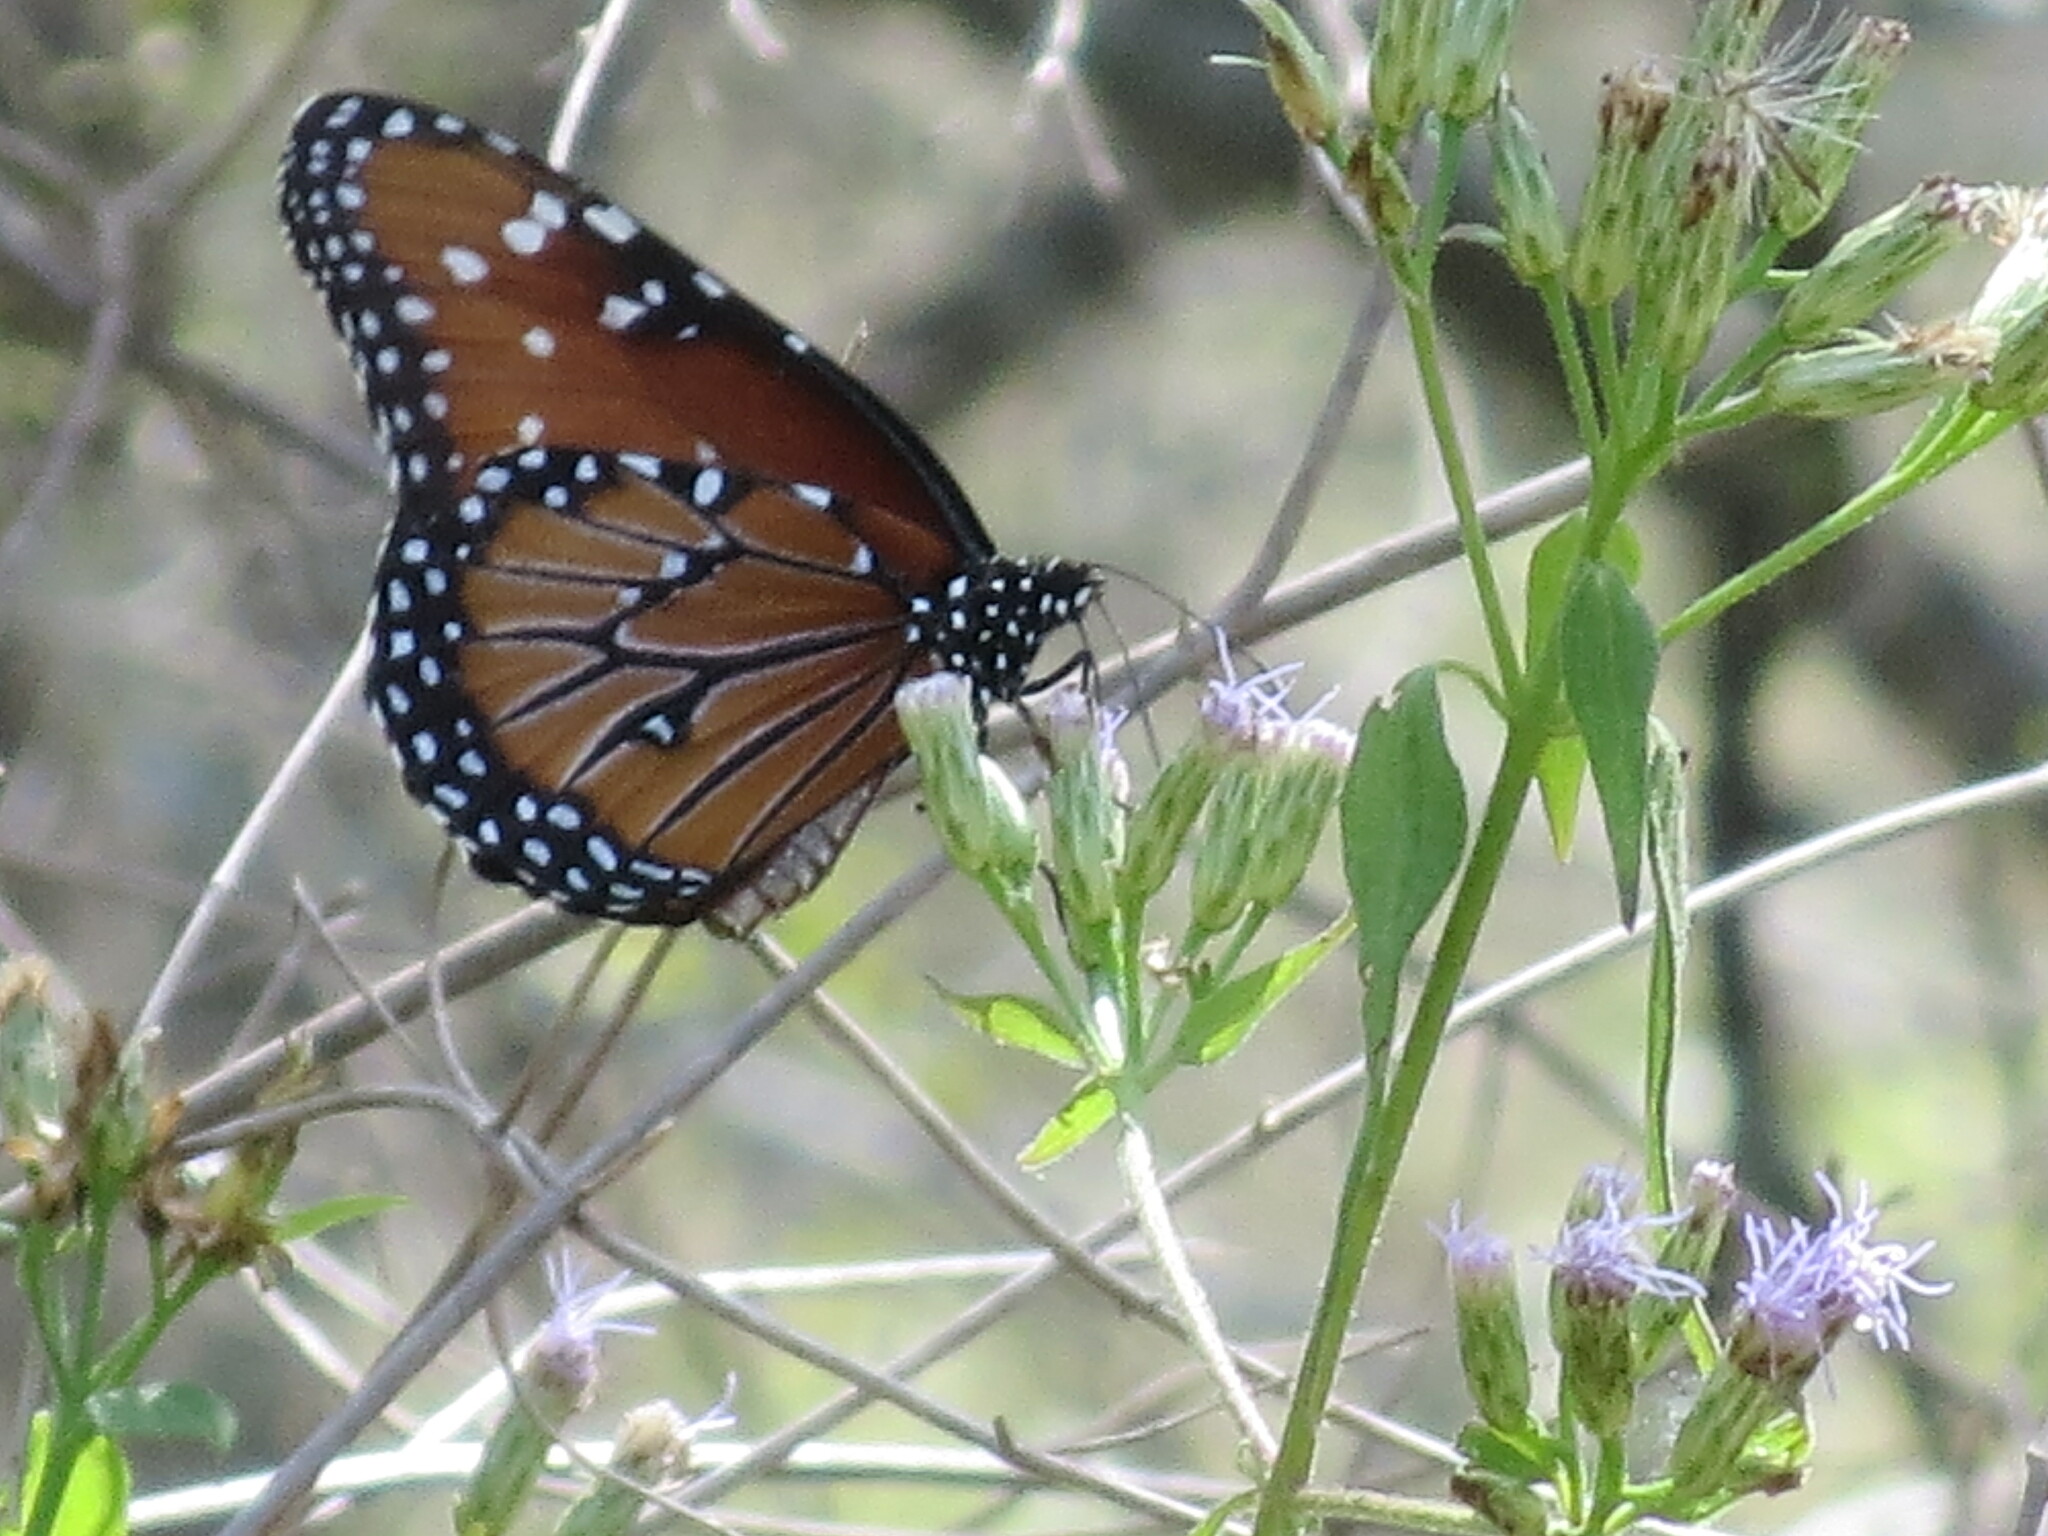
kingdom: Animalia
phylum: Arthropoda
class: Insecta
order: Lepidoptera
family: Nymphalidae
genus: Danaus
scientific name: Danaus gilippus
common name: Queen
